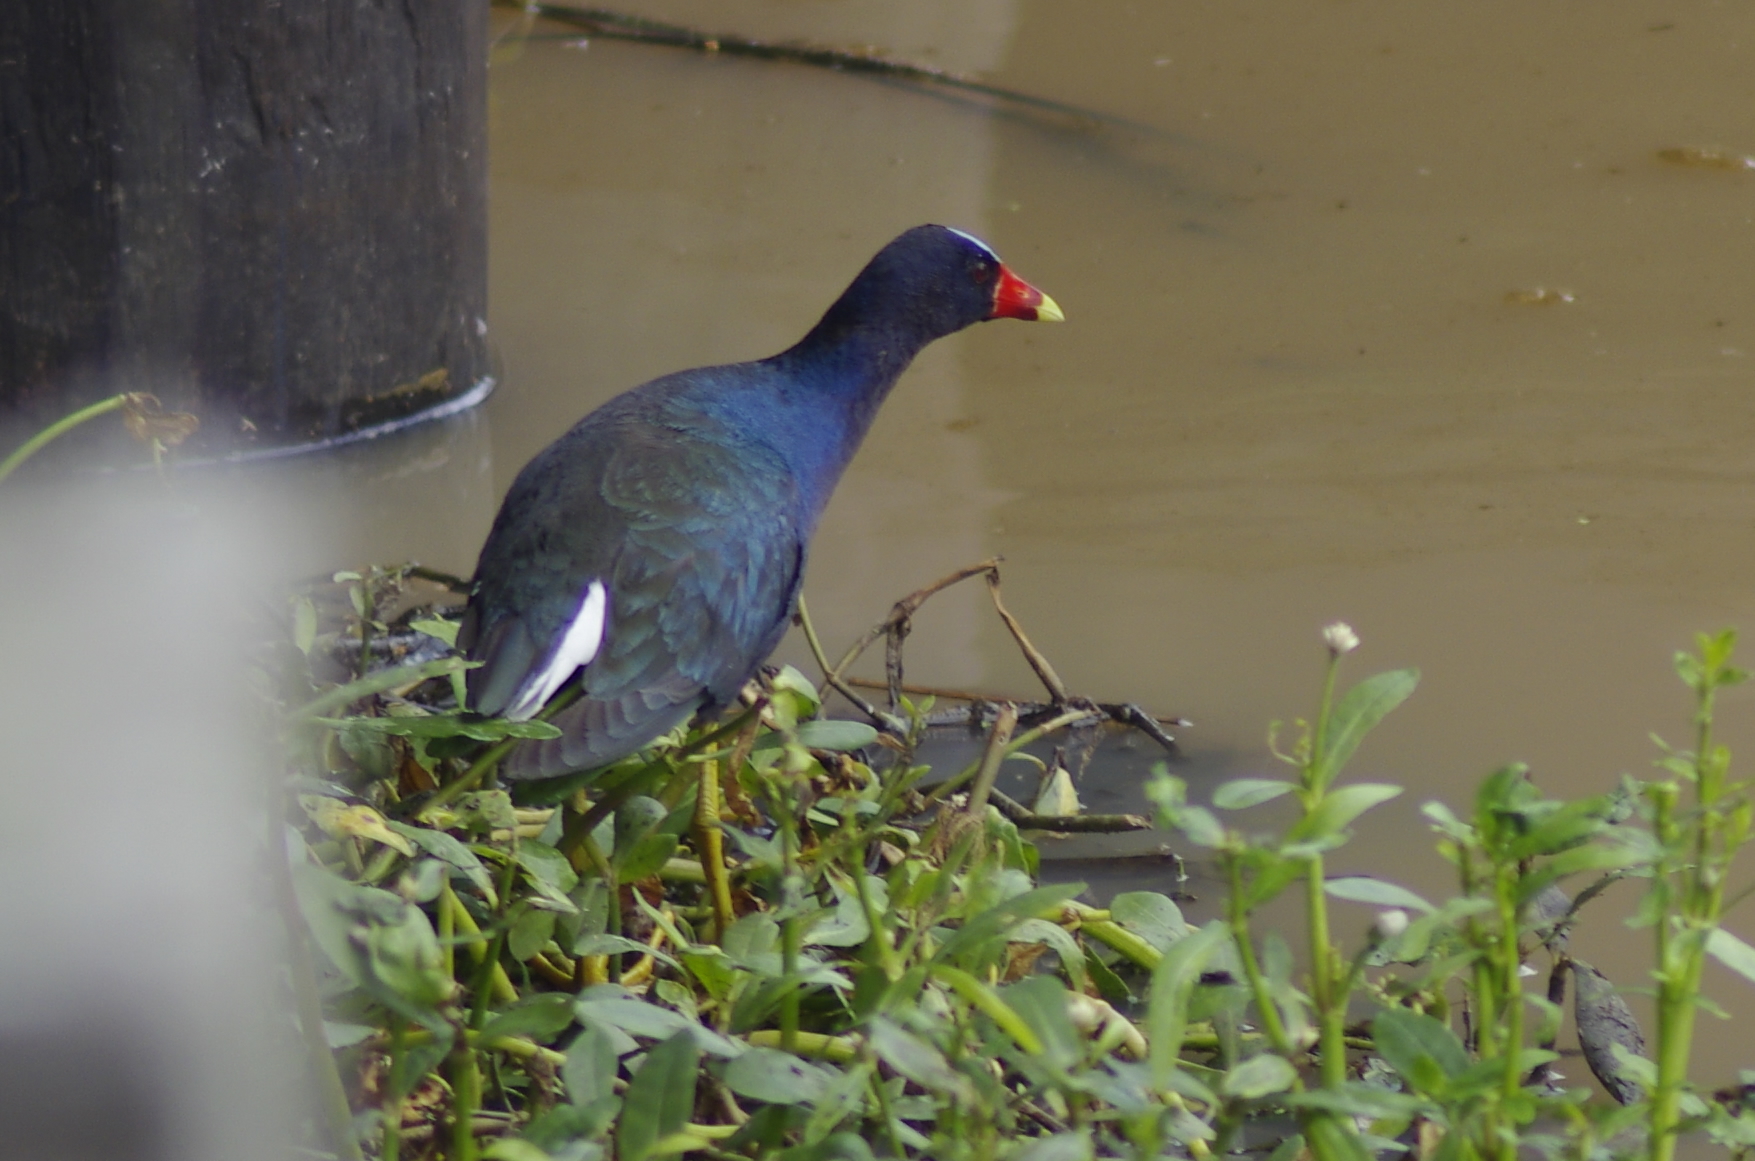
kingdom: Animalia
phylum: Chordata
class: Aves
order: Gruiformes
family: Rallidae
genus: Porphyrio
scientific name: Porphyrio martinica
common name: Purple gallinule
